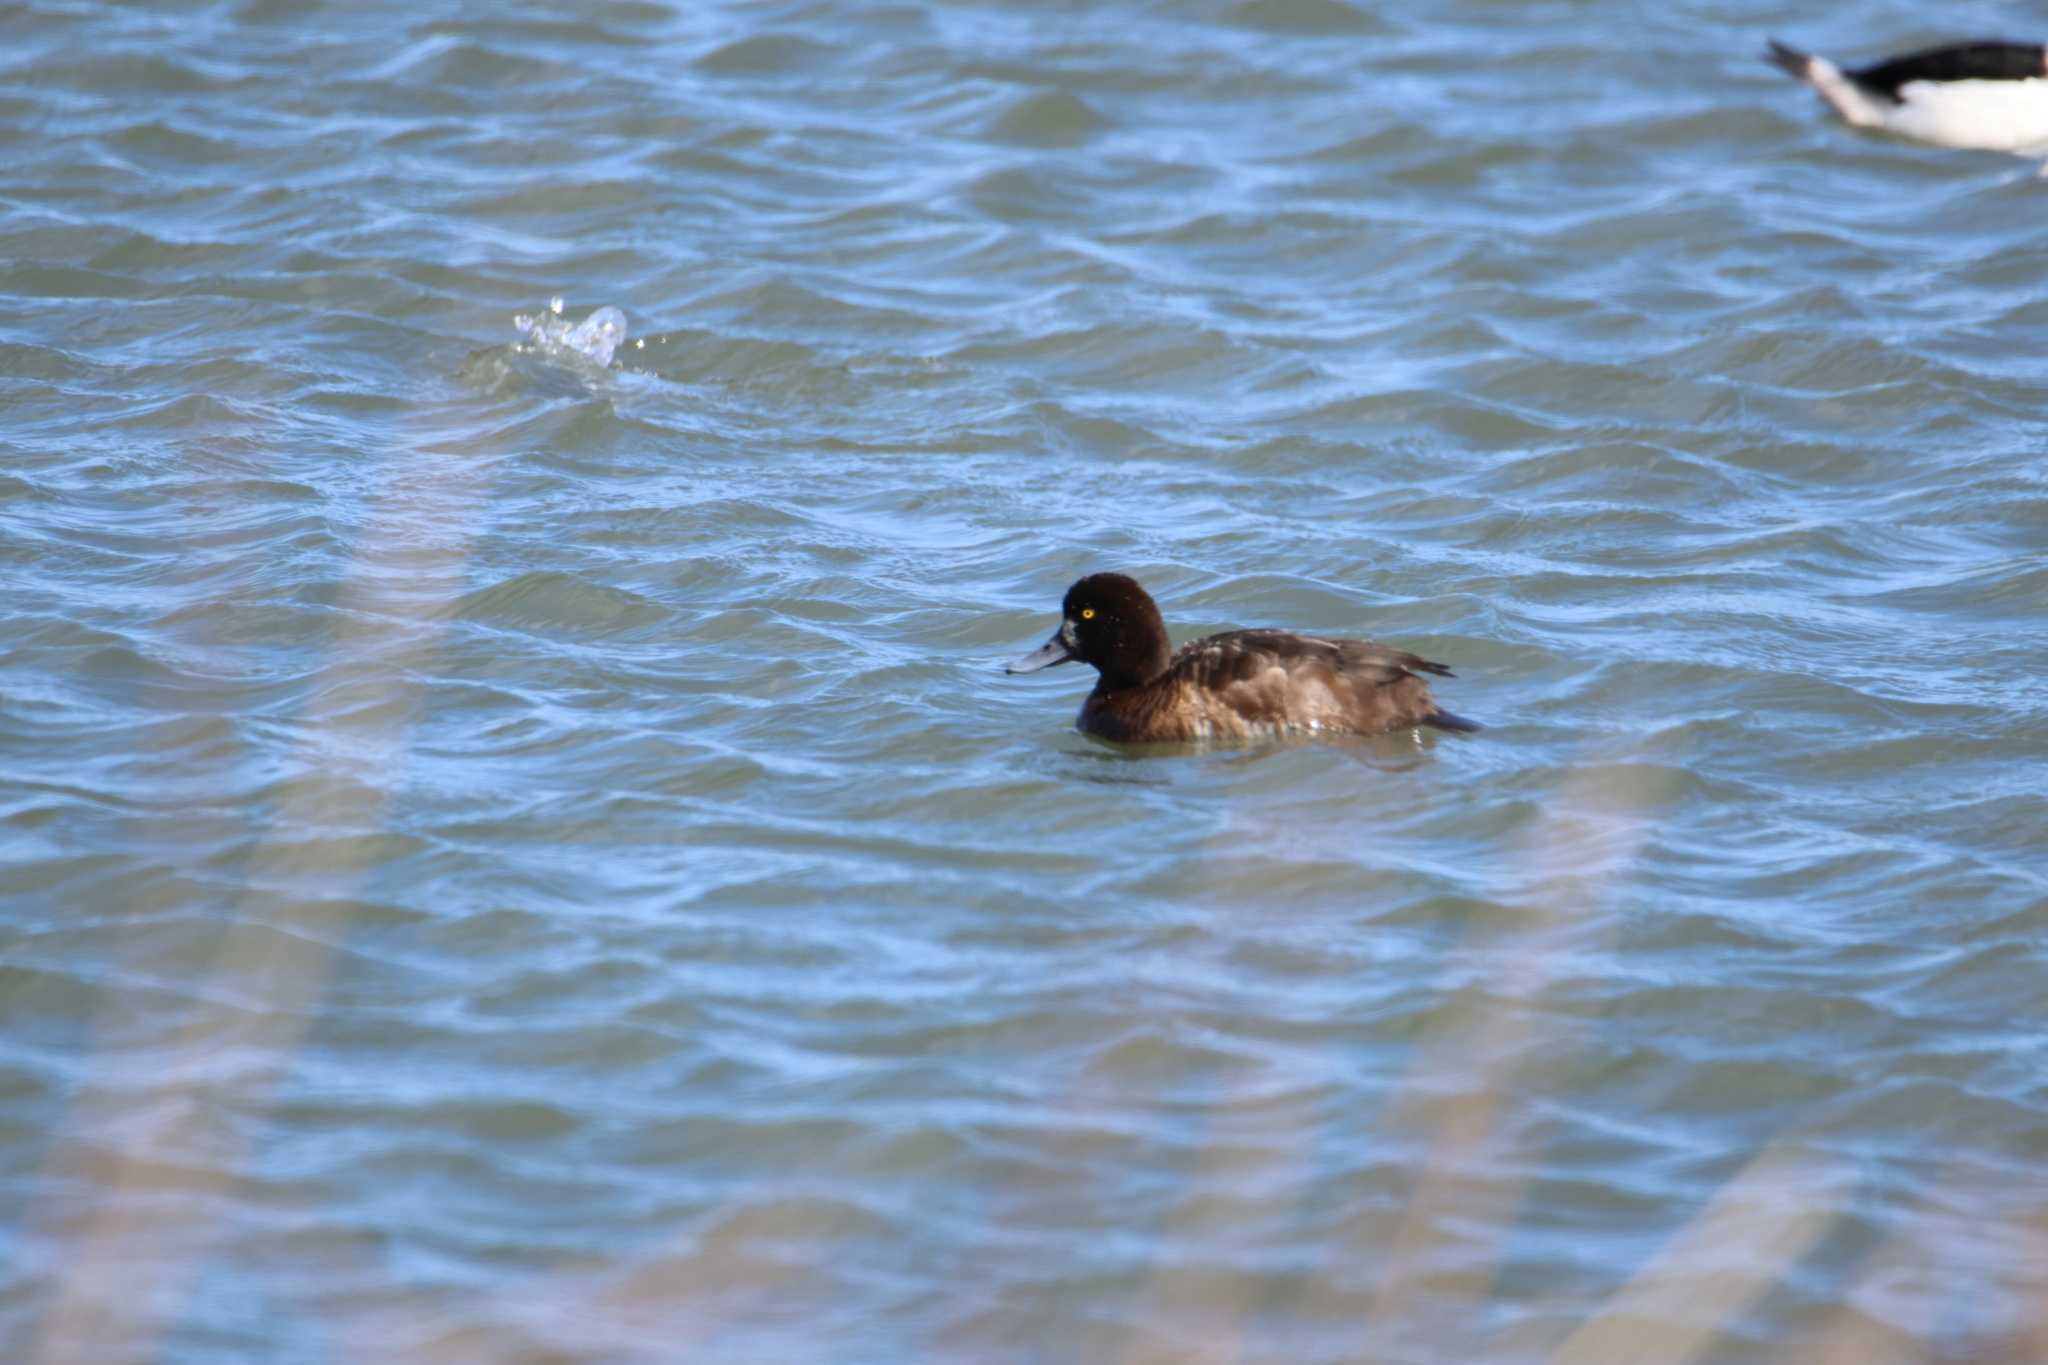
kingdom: Animalia
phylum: Chordata
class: Aves
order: Anseriformes
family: Anatidae
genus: Aythya
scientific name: Aythya affinis
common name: Lesser scaup
